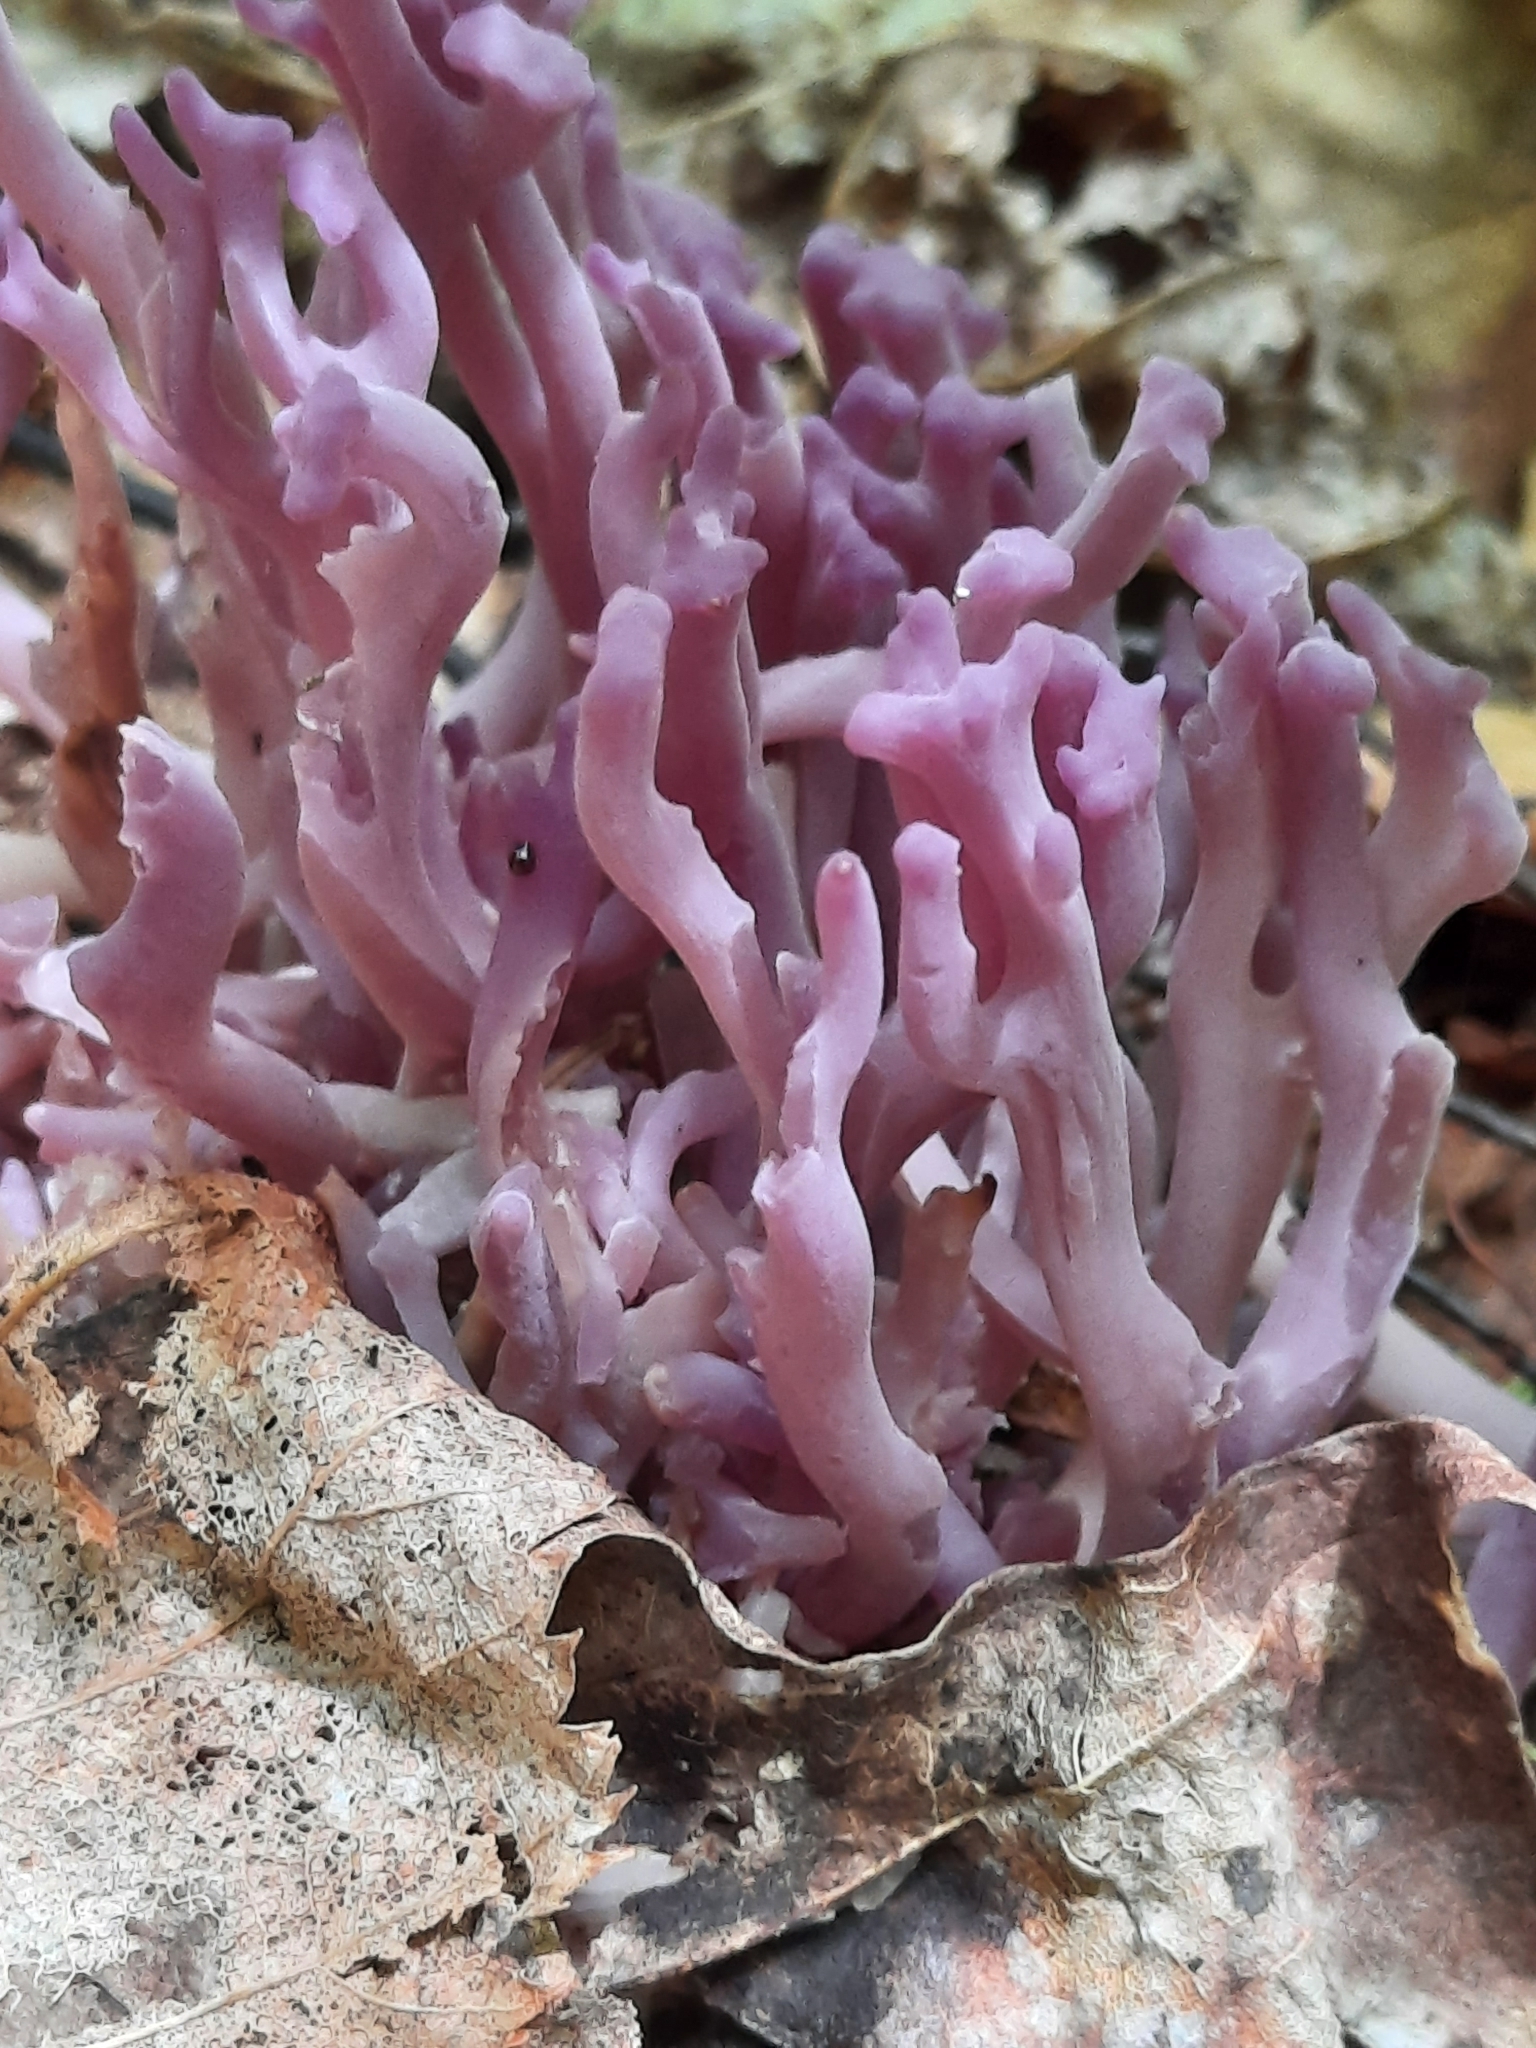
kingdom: Fungi
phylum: Basidiomycota
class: Agaricomycetes
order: Agaricales
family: Clavariaceae
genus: Clavaria
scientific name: Clavaria zollingeri
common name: Violet coral
